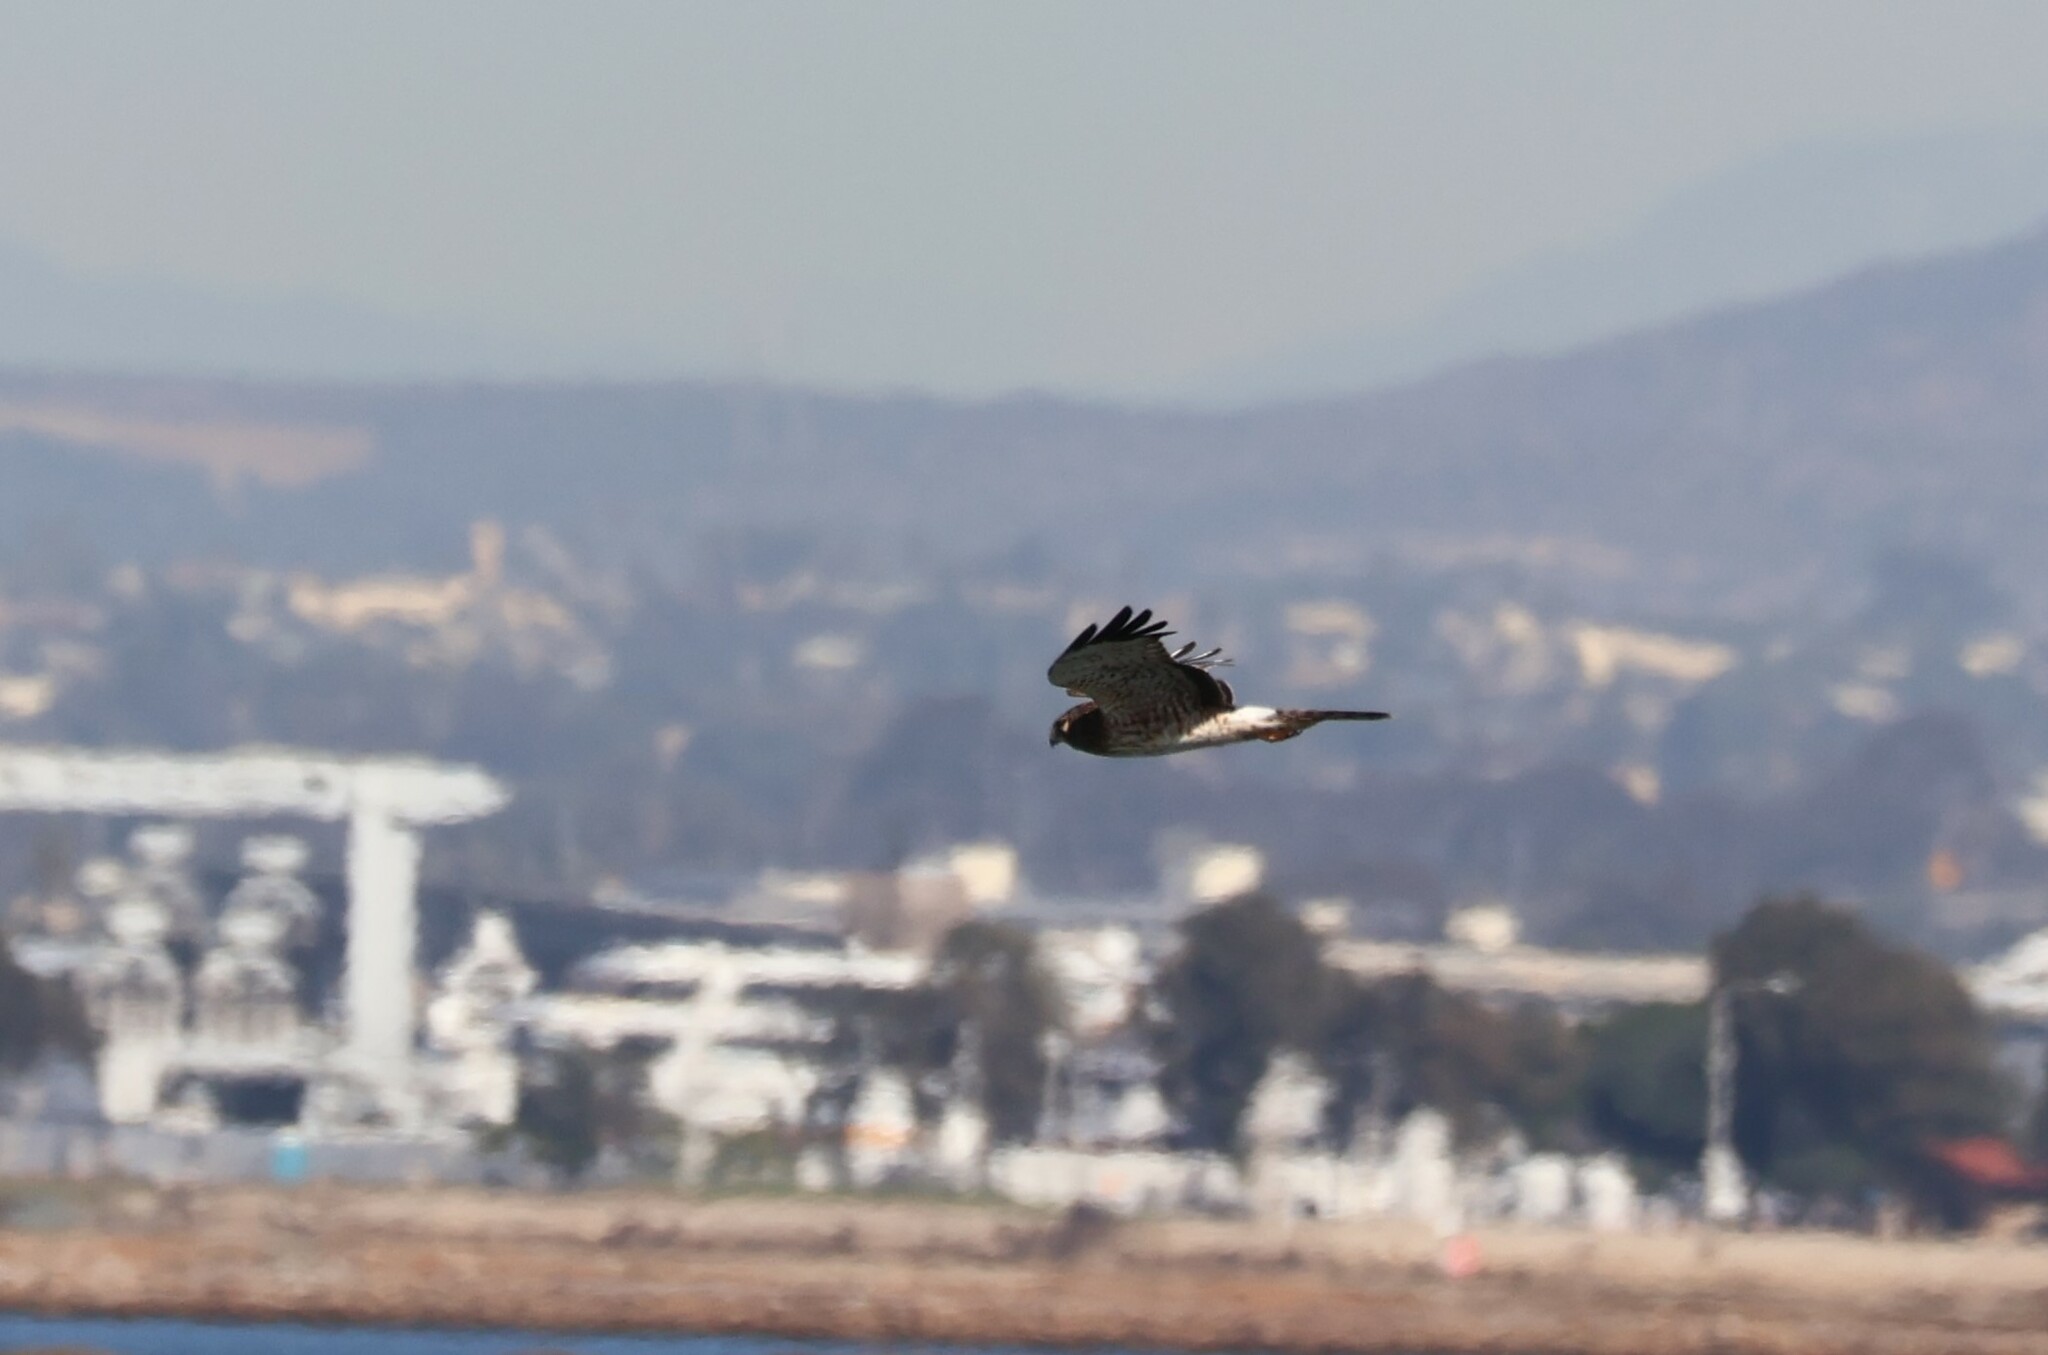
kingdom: Animalia
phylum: Chordata
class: Aves
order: Accipitriformes
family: Accipitridae
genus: Circus
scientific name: Circus cyaneus
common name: Hen harrier
